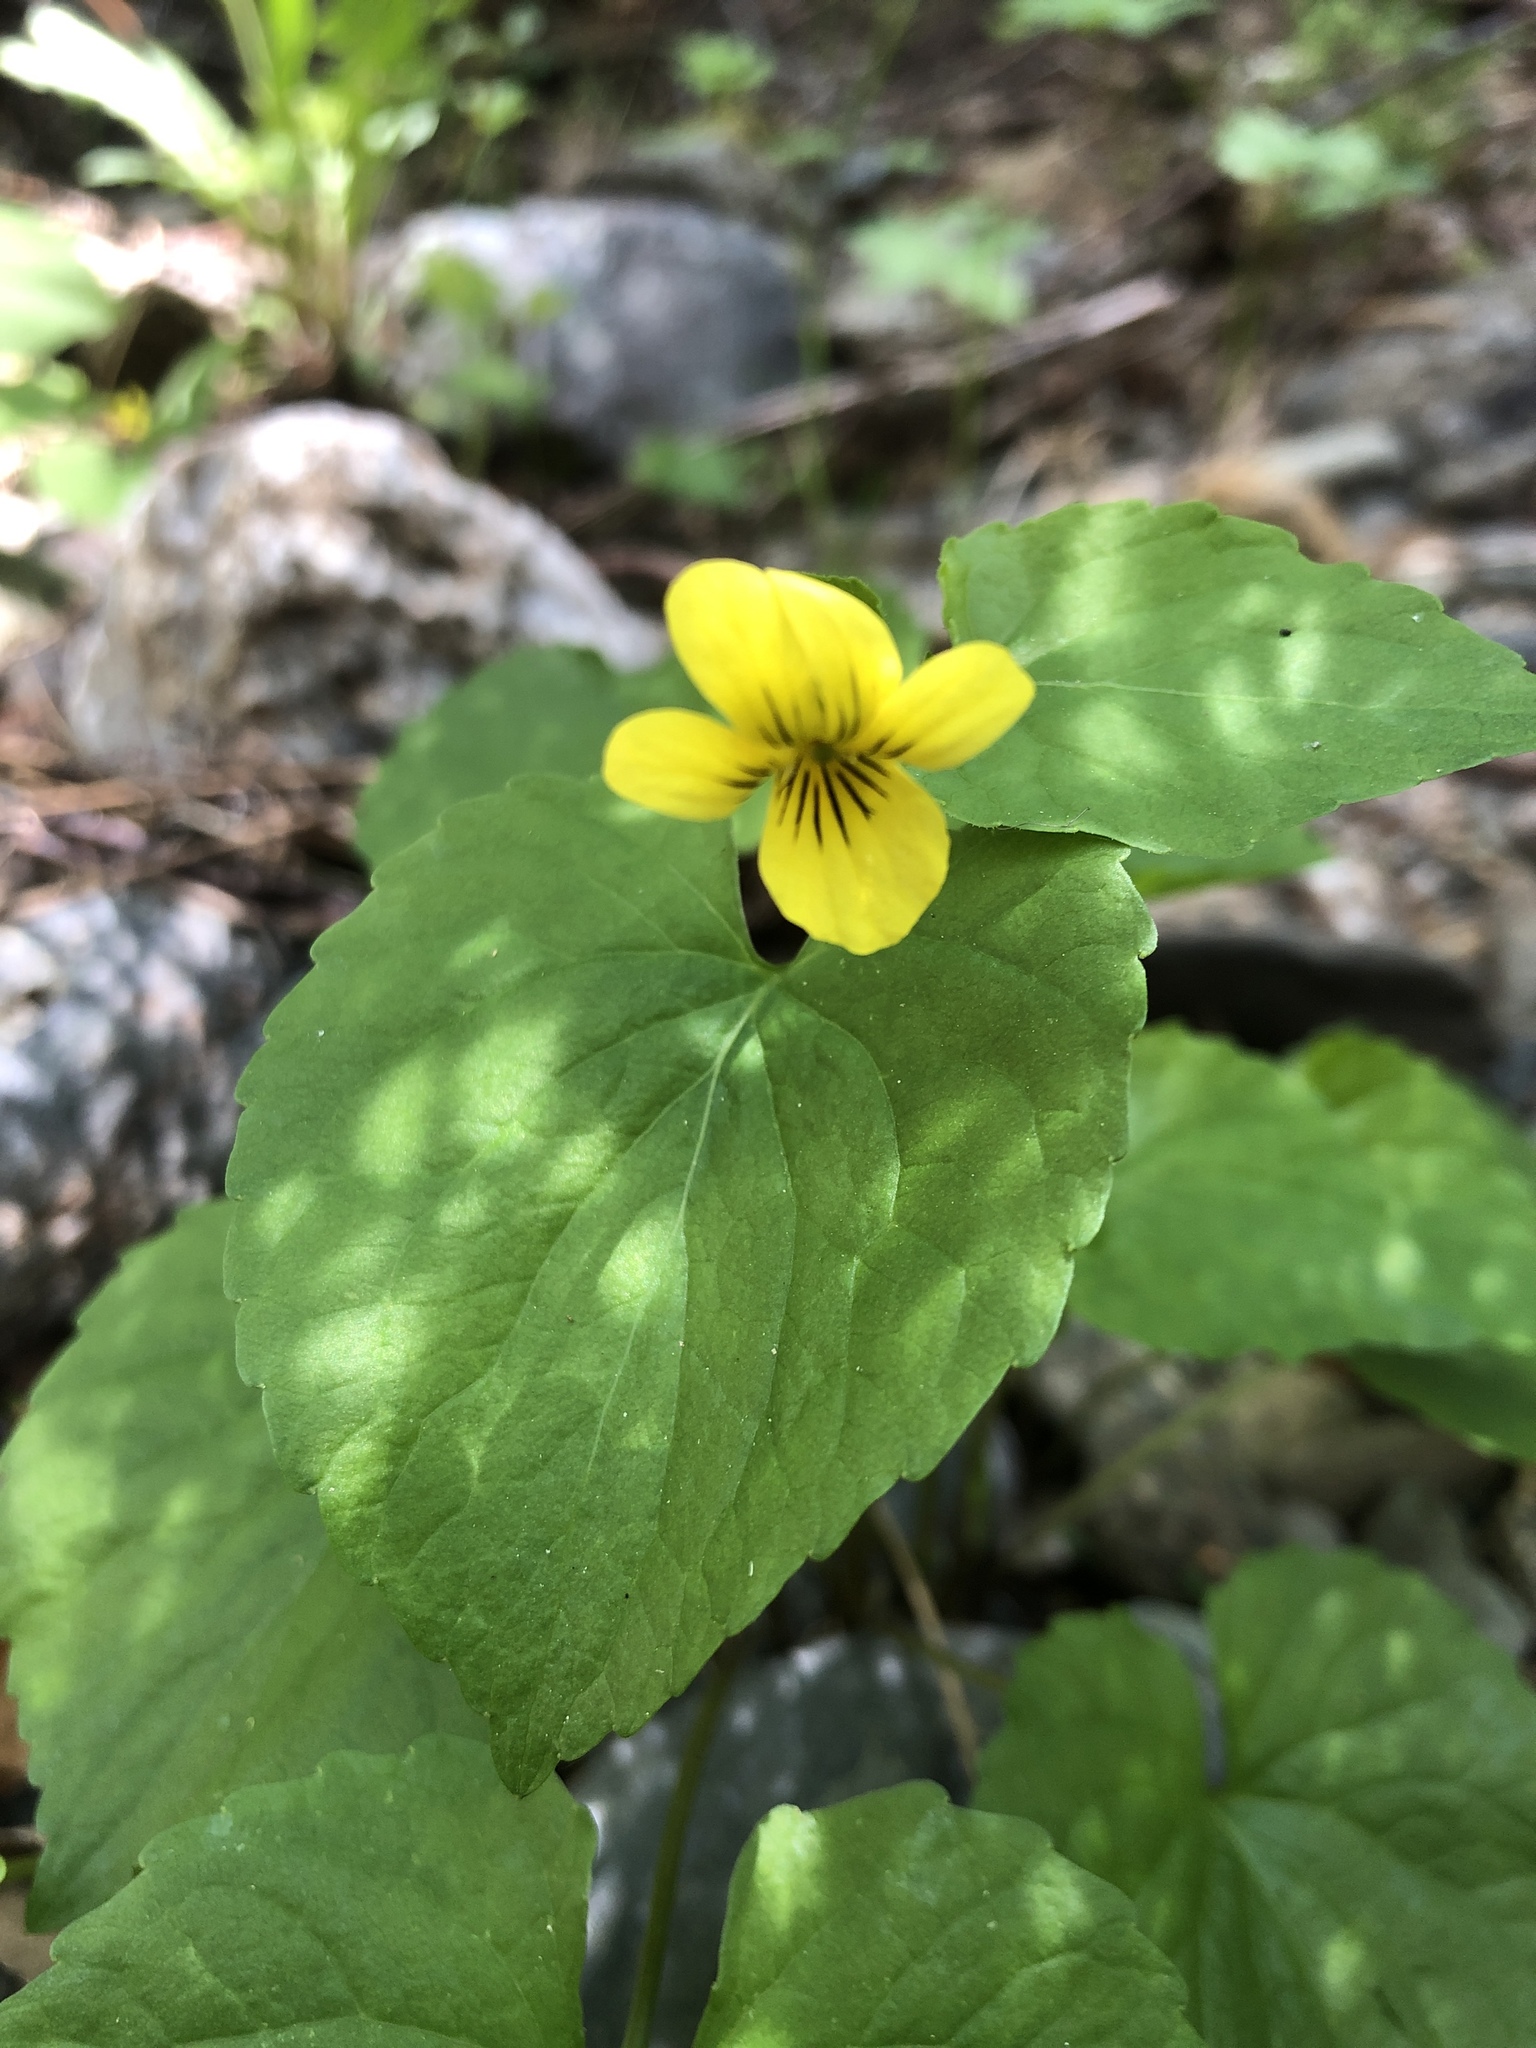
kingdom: Plantae
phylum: Tracheophyta
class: Magnoliopsida
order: Malpighiales
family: Violaceae
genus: Viola
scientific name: Viola glabella
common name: Stream violet
